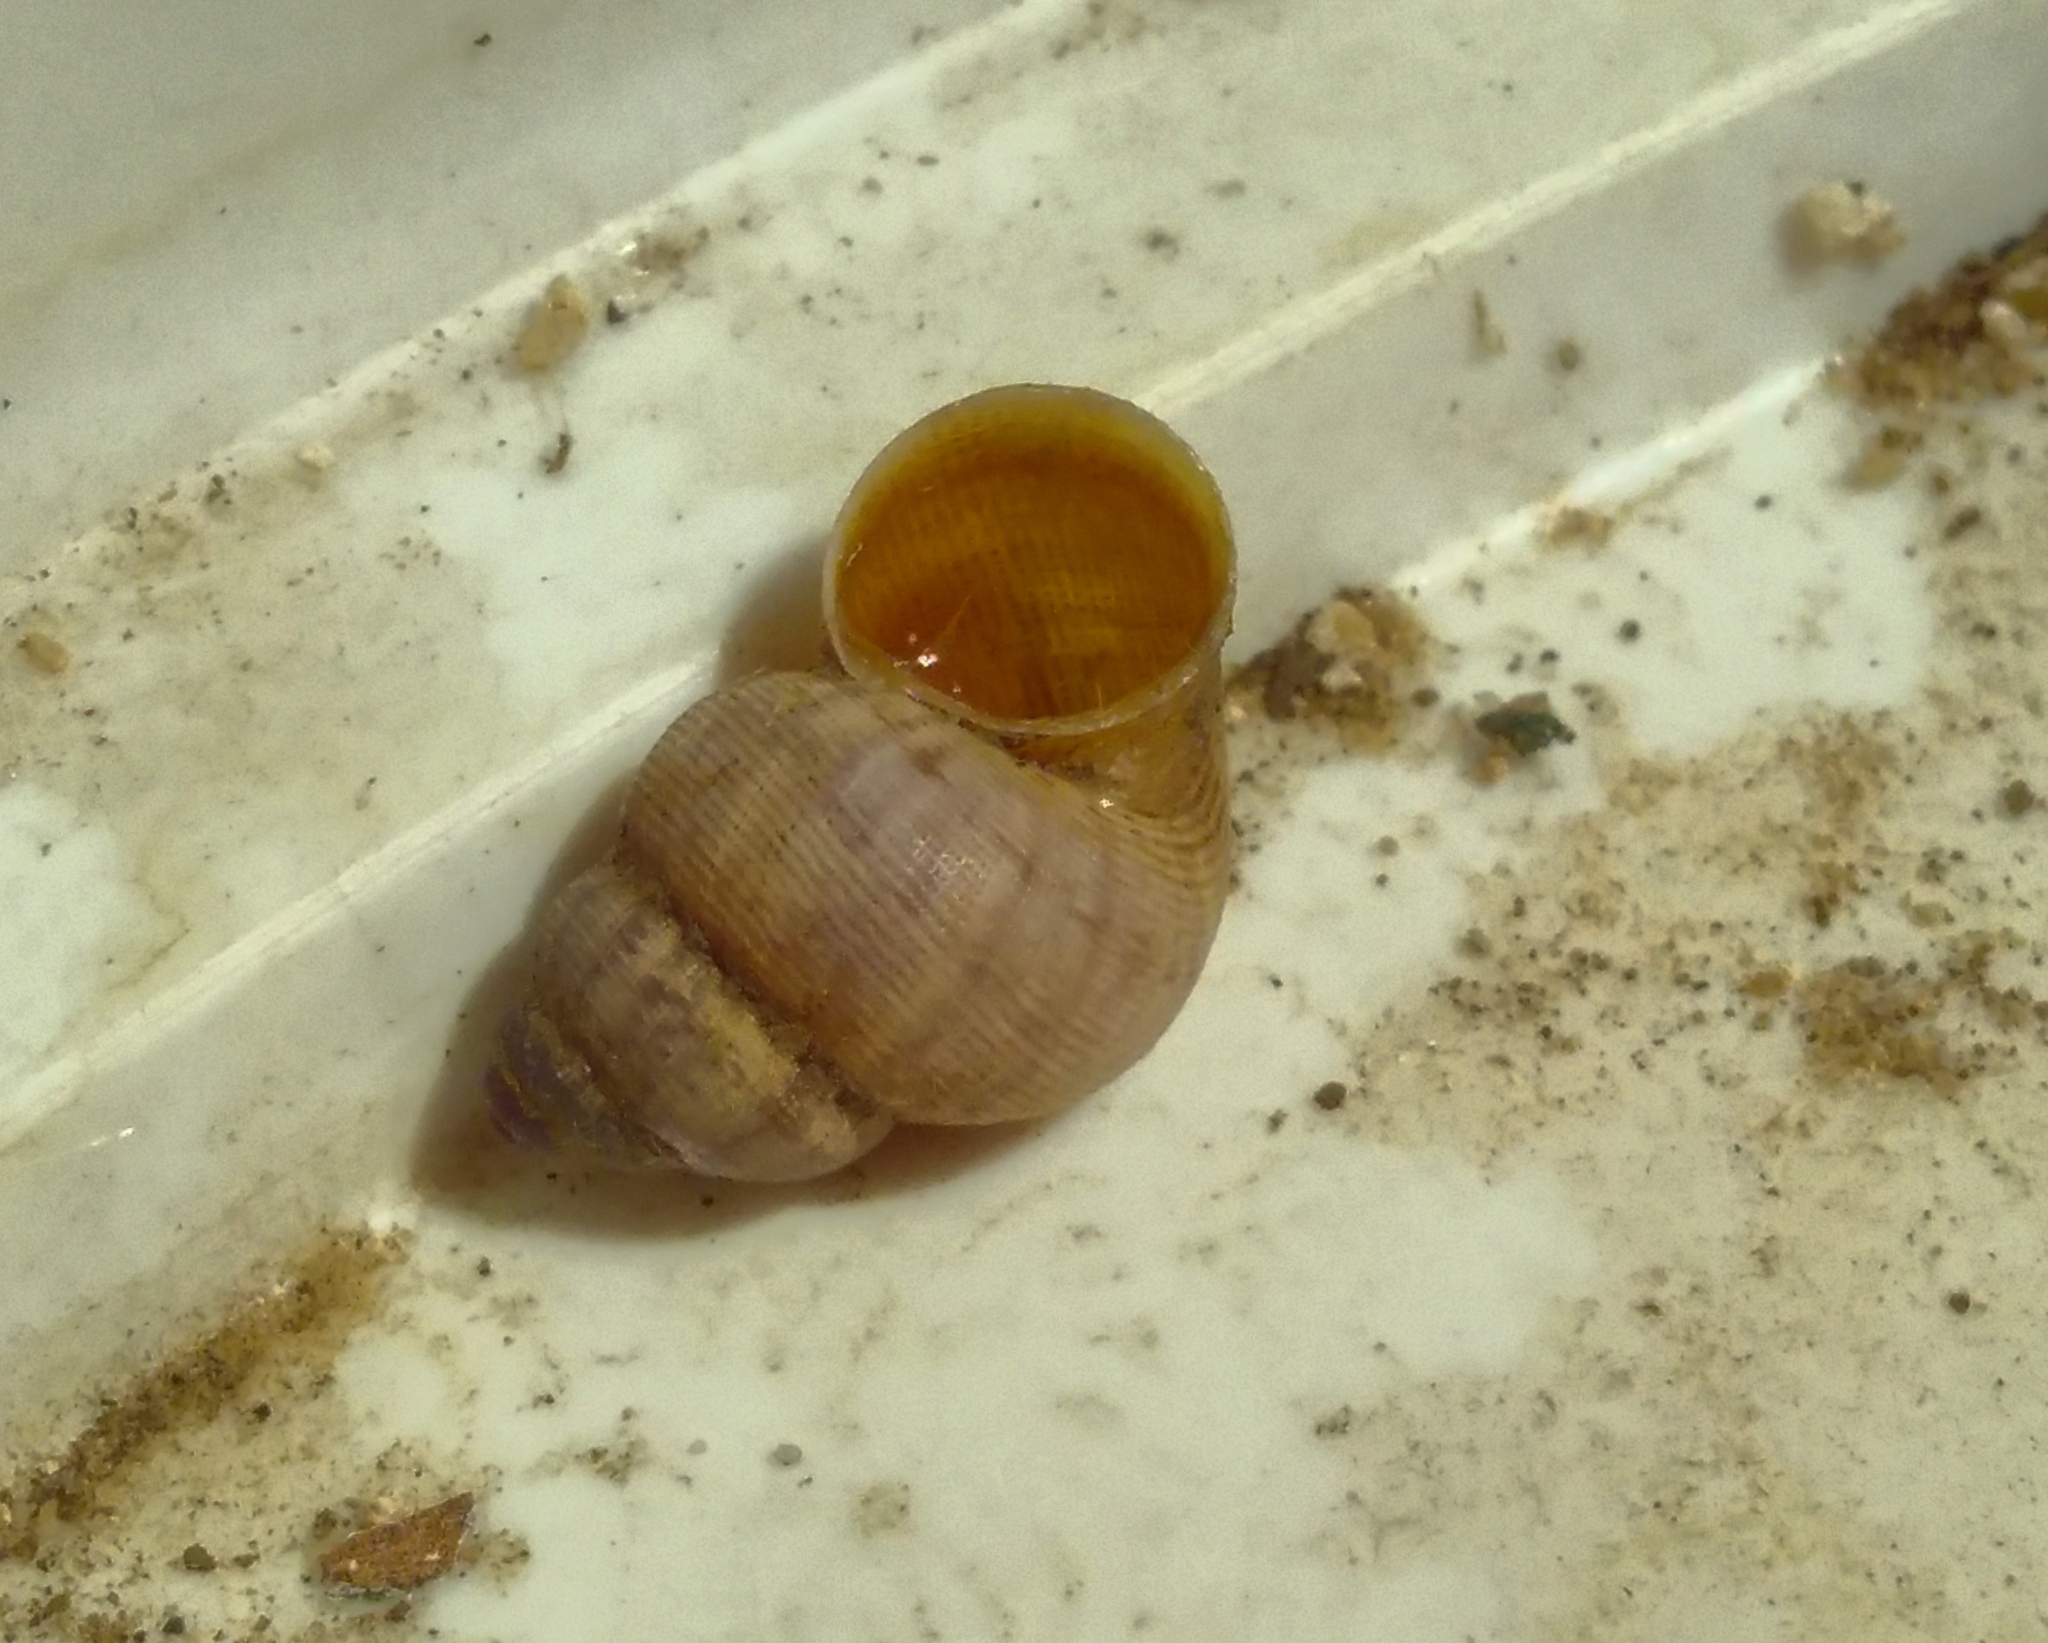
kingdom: Animalia
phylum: Mollusca
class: Gastropoda
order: Littorinimorpha
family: Pomatiidae
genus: Pomatias
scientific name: Pomatias elegans
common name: Red-mouthed snail
